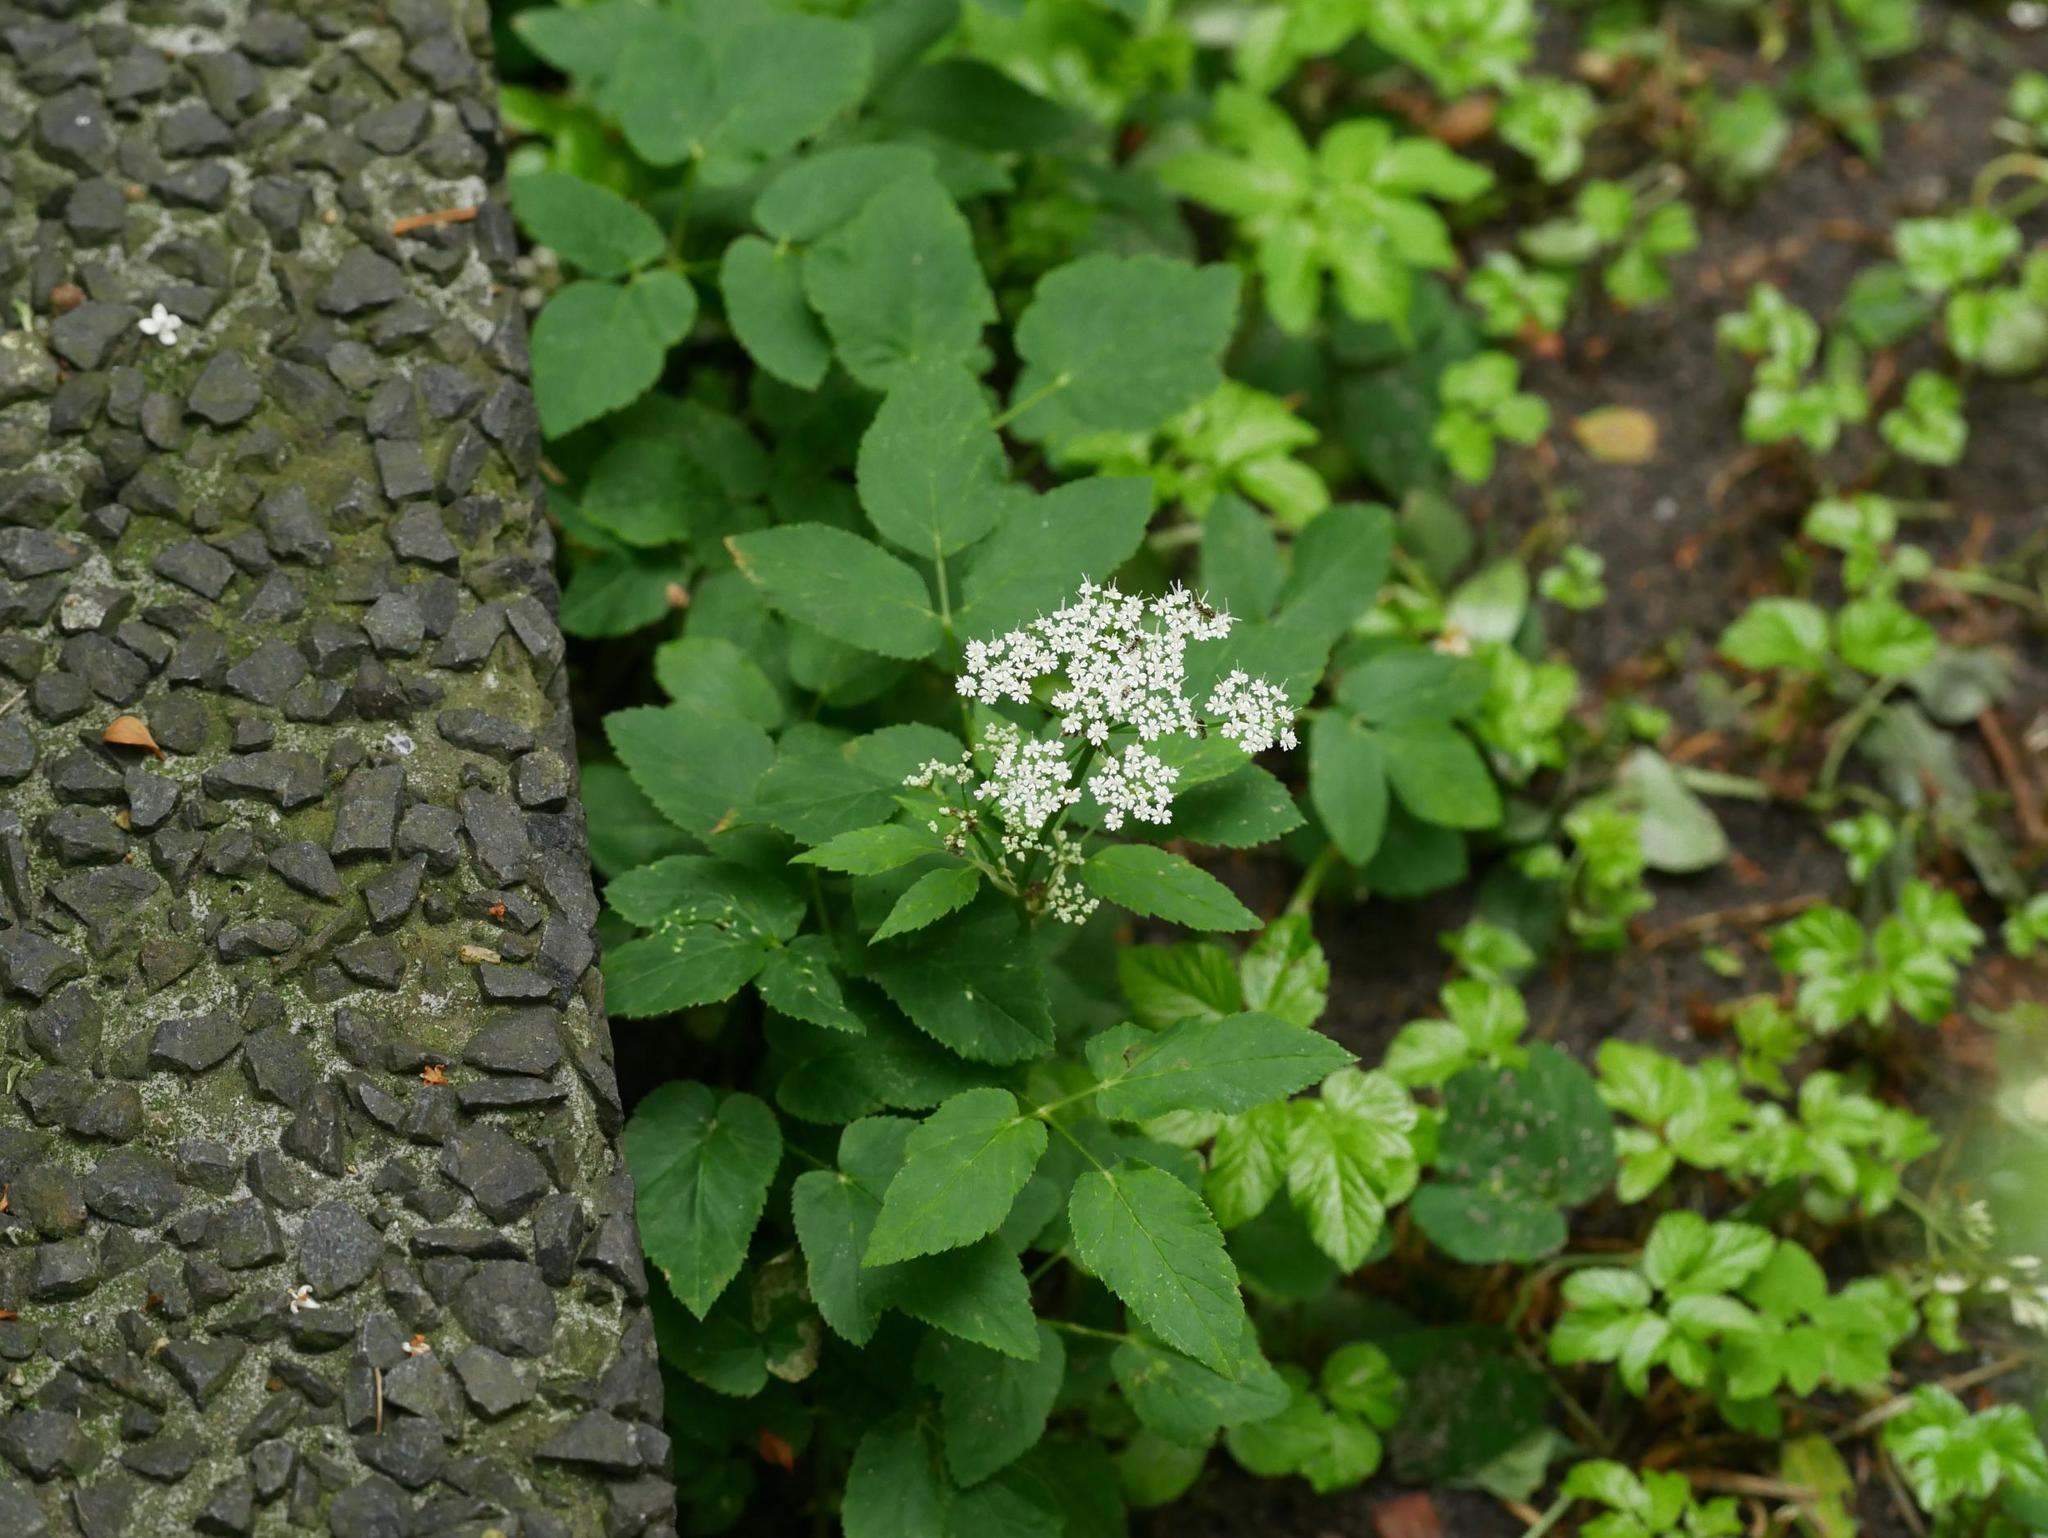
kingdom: Plantae
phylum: Tracheophyta
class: Magnoliopsida
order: Apiales
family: Apiaceae
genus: Aegopodium
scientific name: Aegopodium podagraria
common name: Ground-elder
